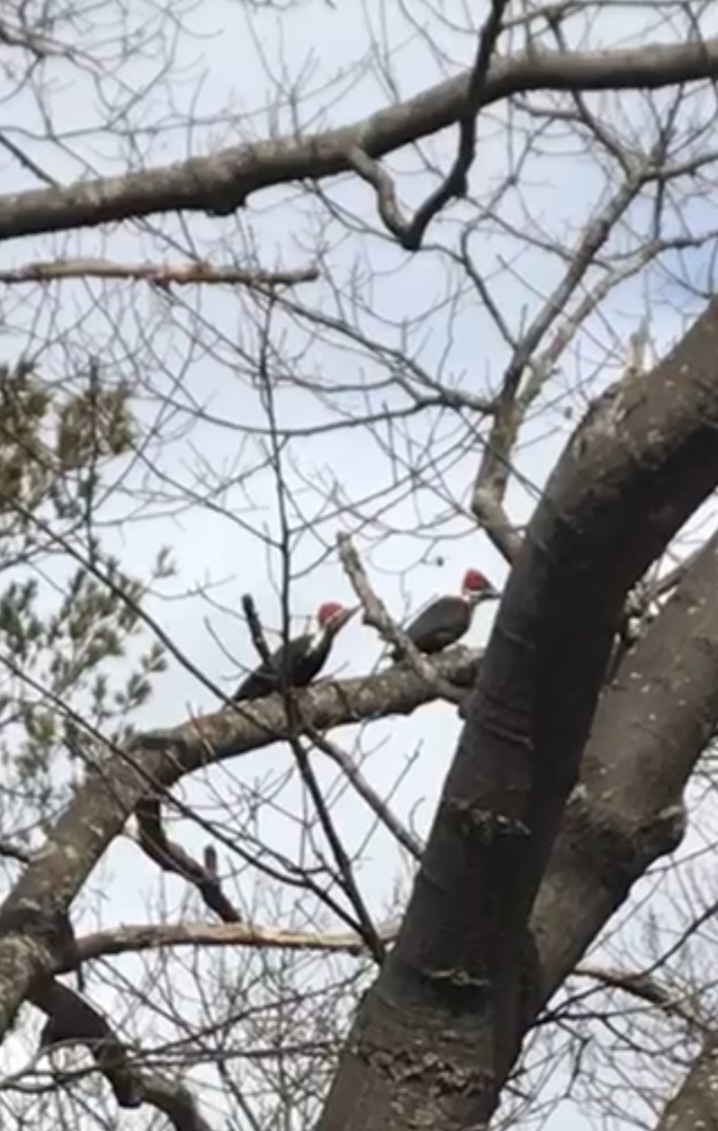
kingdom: Animalia
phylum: Chordata
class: Aves
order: Piciformes
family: Picidae
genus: Dryocopus
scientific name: Dryocopus pileatus
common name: Pileated woodpecker
